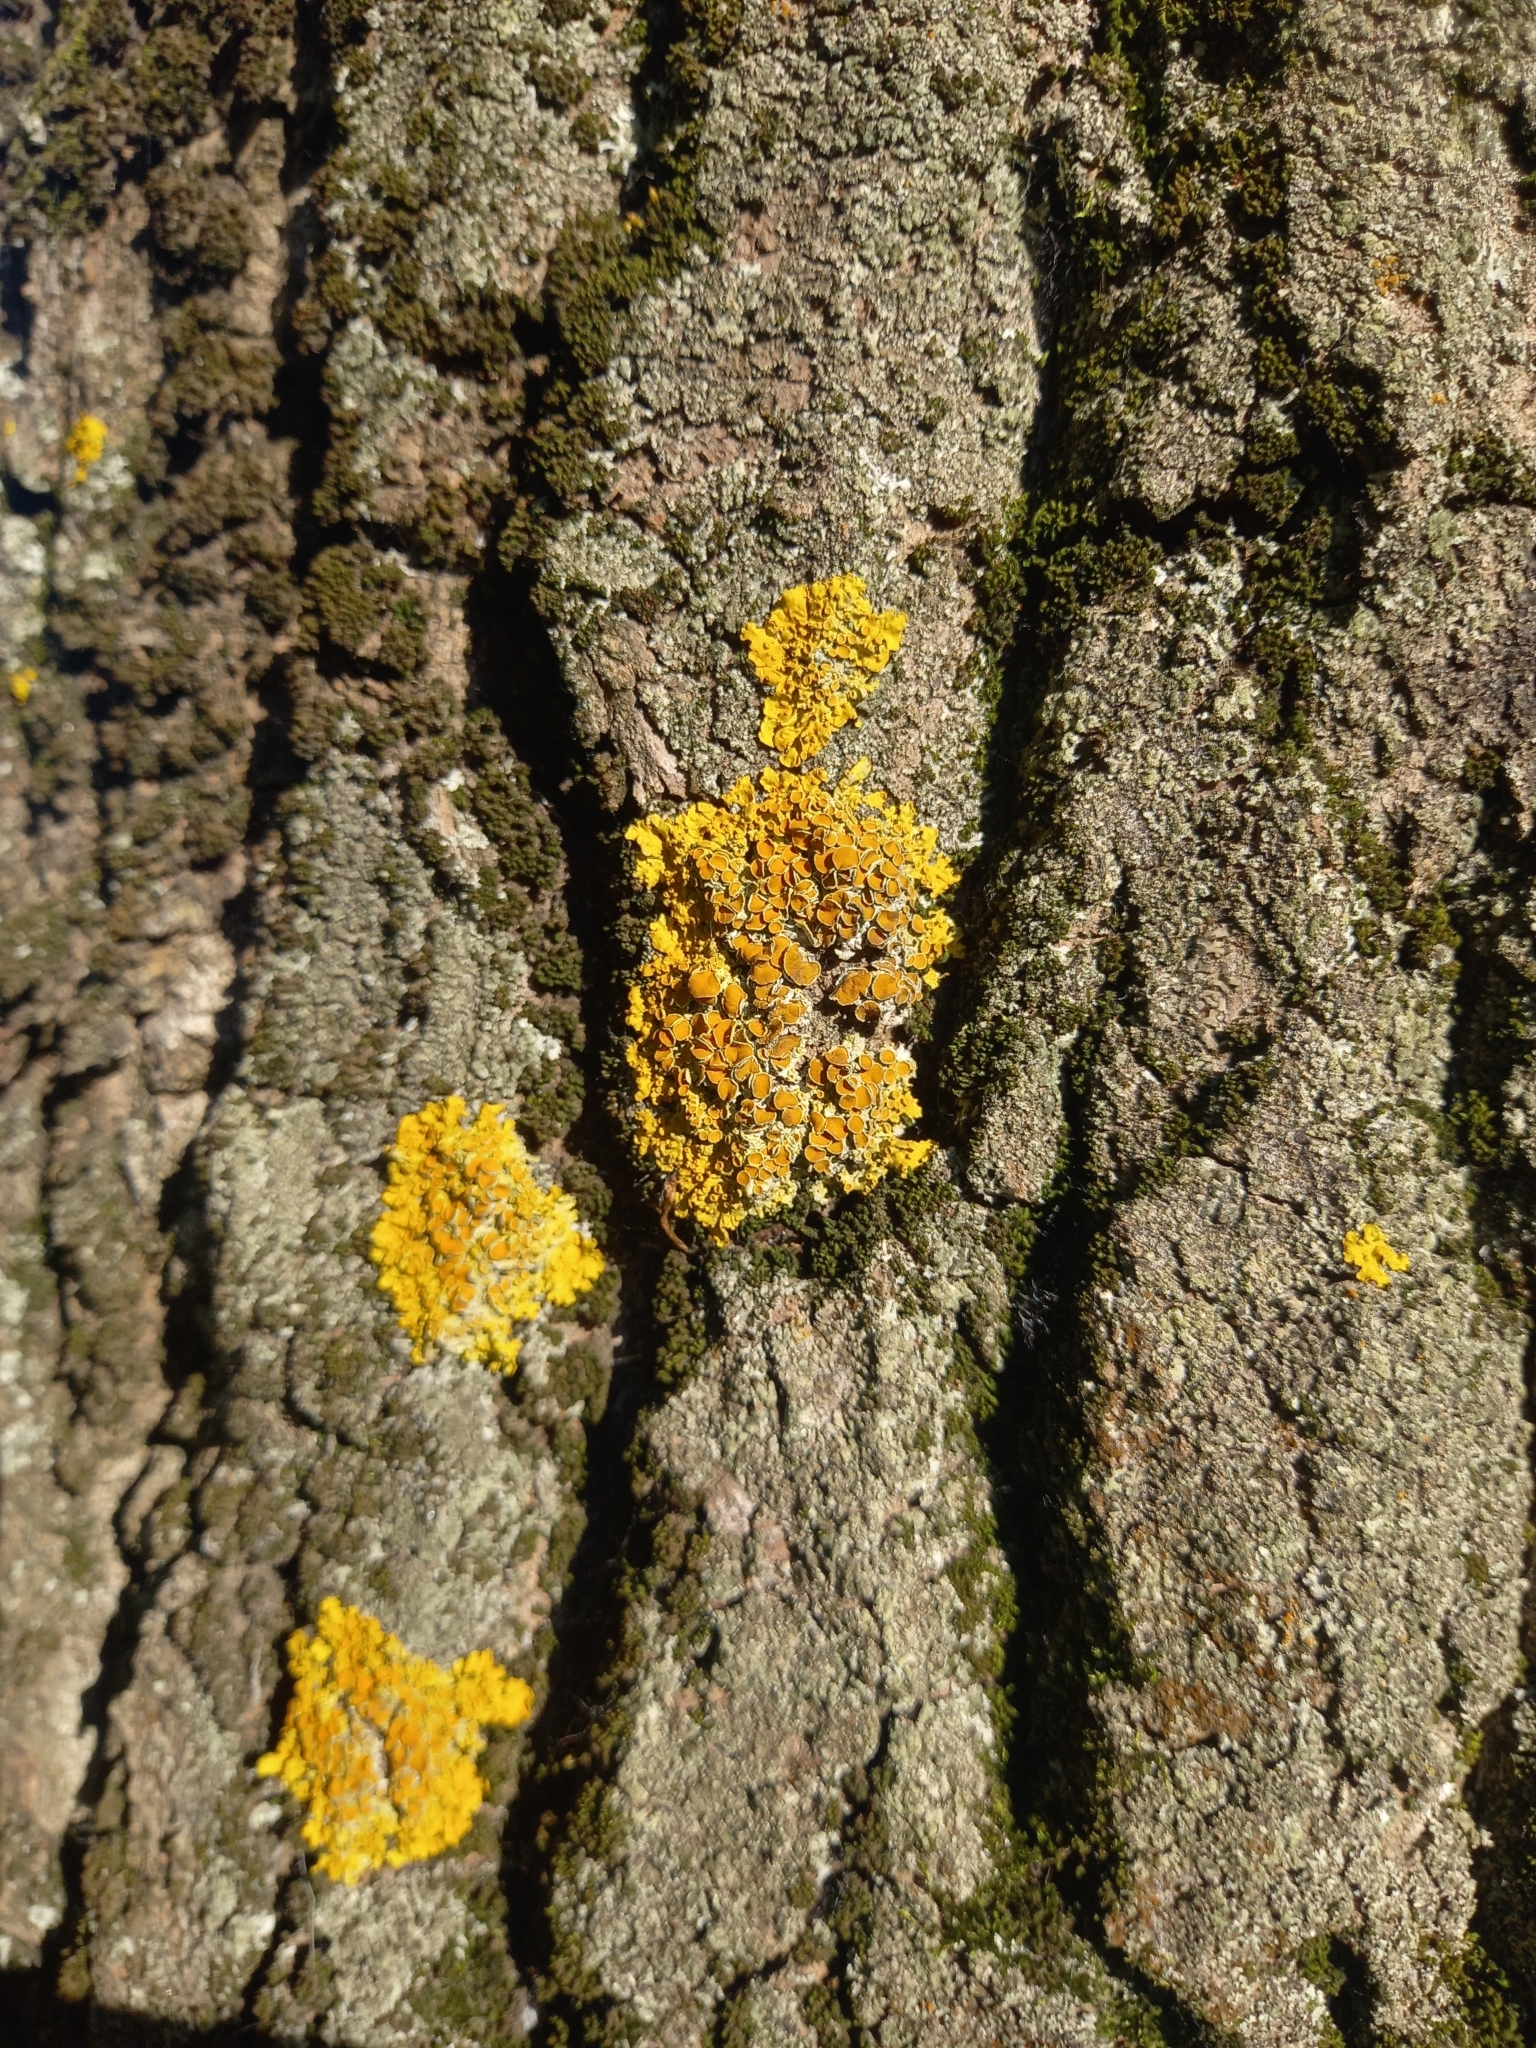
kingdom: Fungi
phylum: Ascomycota
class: Lecanoromycetes
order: Teloschistales
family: Teloschistaceae
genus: Xanthoria
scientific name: Xanthoria parietina
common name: Common orange lichen
